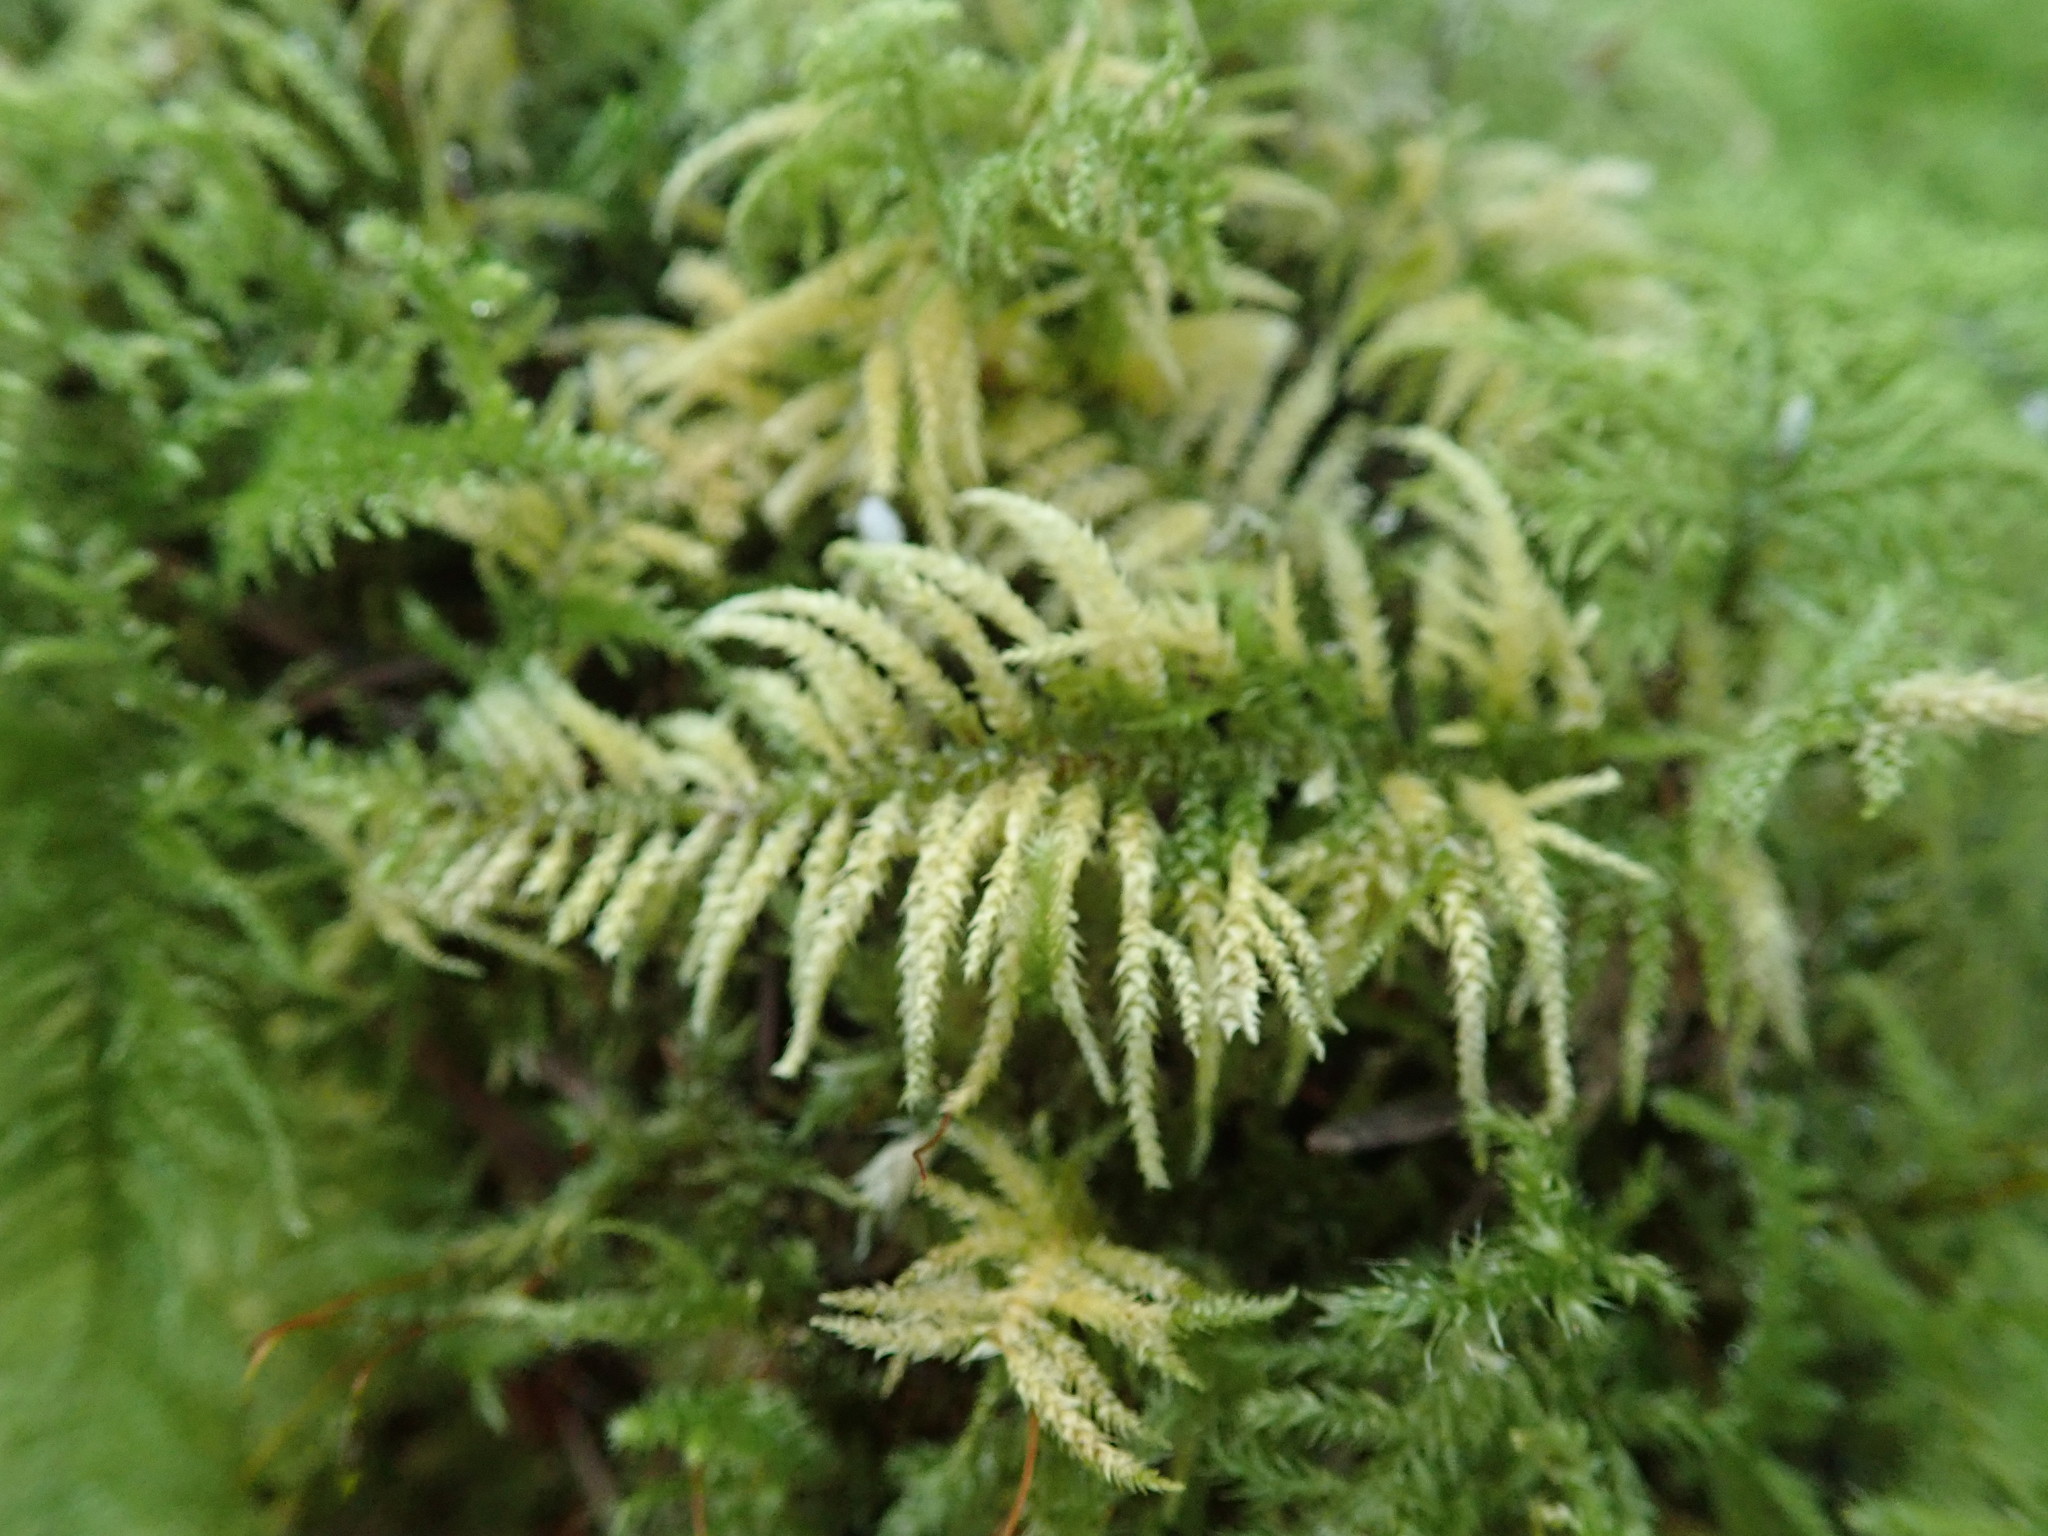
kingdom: Plantae
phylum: Bryophyta
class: Bryopsida
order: Hypnales
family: Brachytheciaceae
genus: Kindbergia
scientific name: Kindbergia oregana
